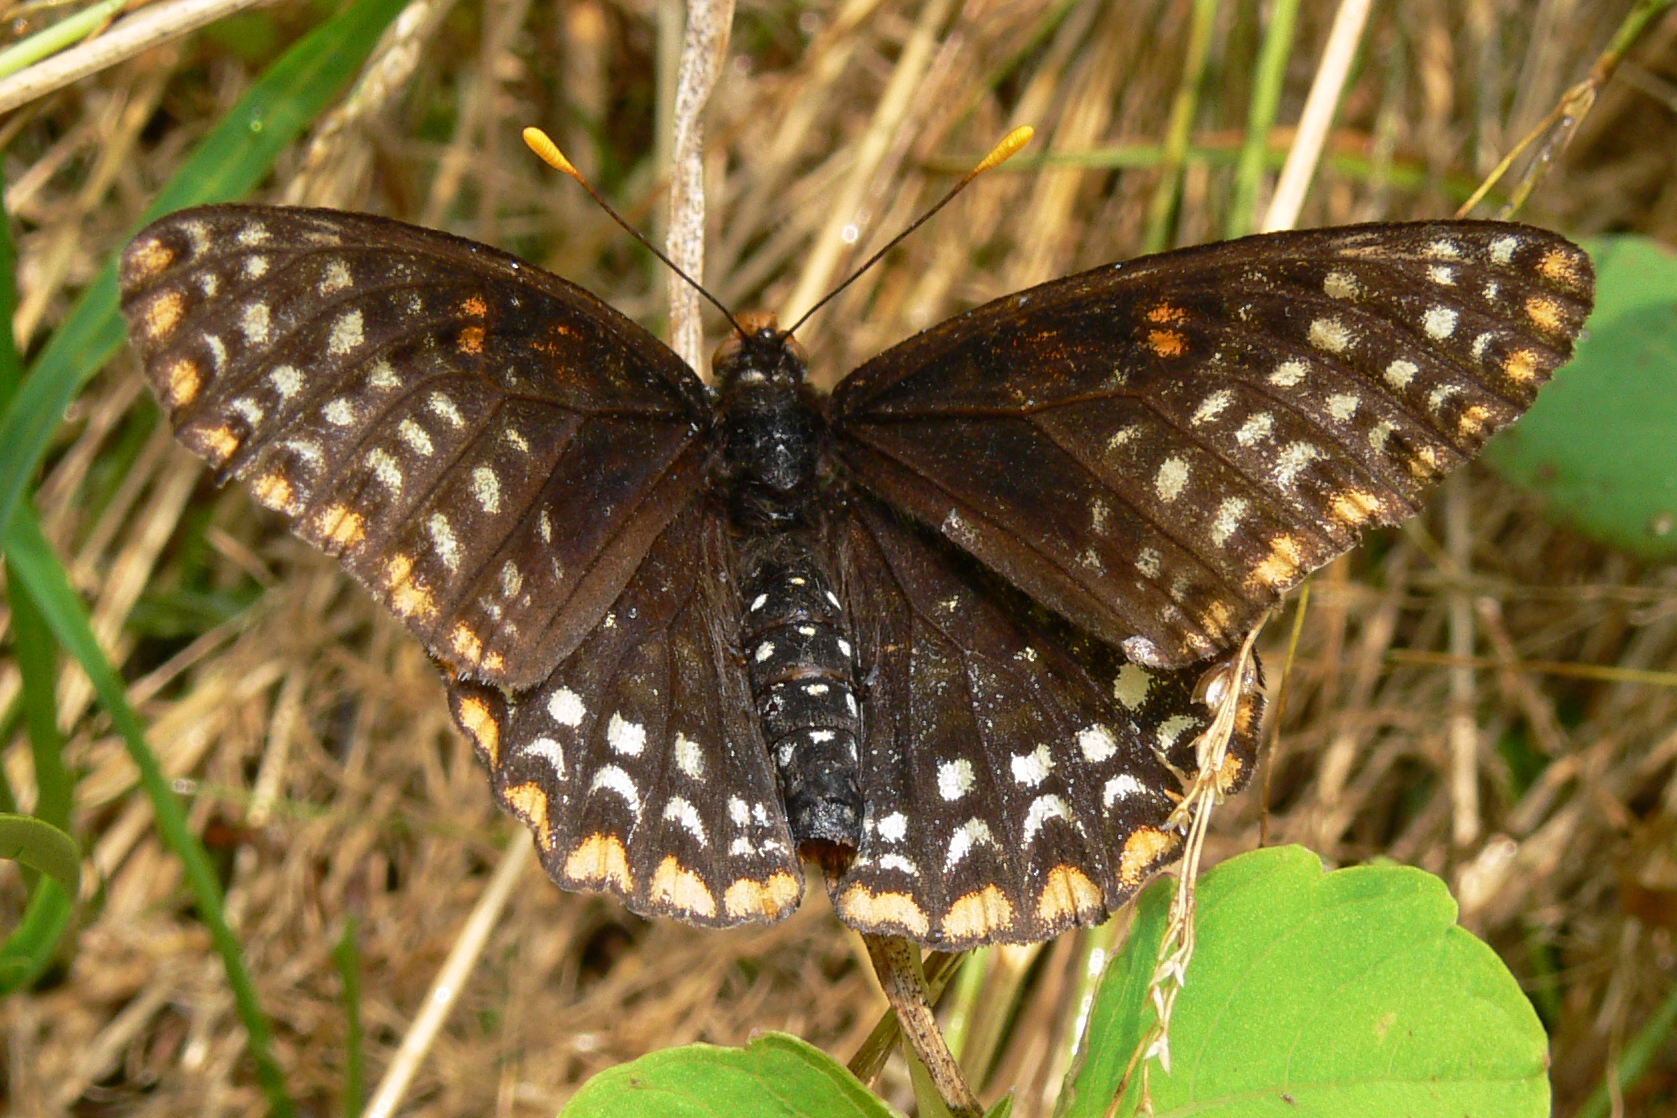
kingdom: Animalia
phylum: Arthropoda
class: Insecta
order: Lepidoptera
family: Nymphalidae
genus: Euphydryas
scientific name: Euphydryas phaeton
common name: Baltimore checkerspot
